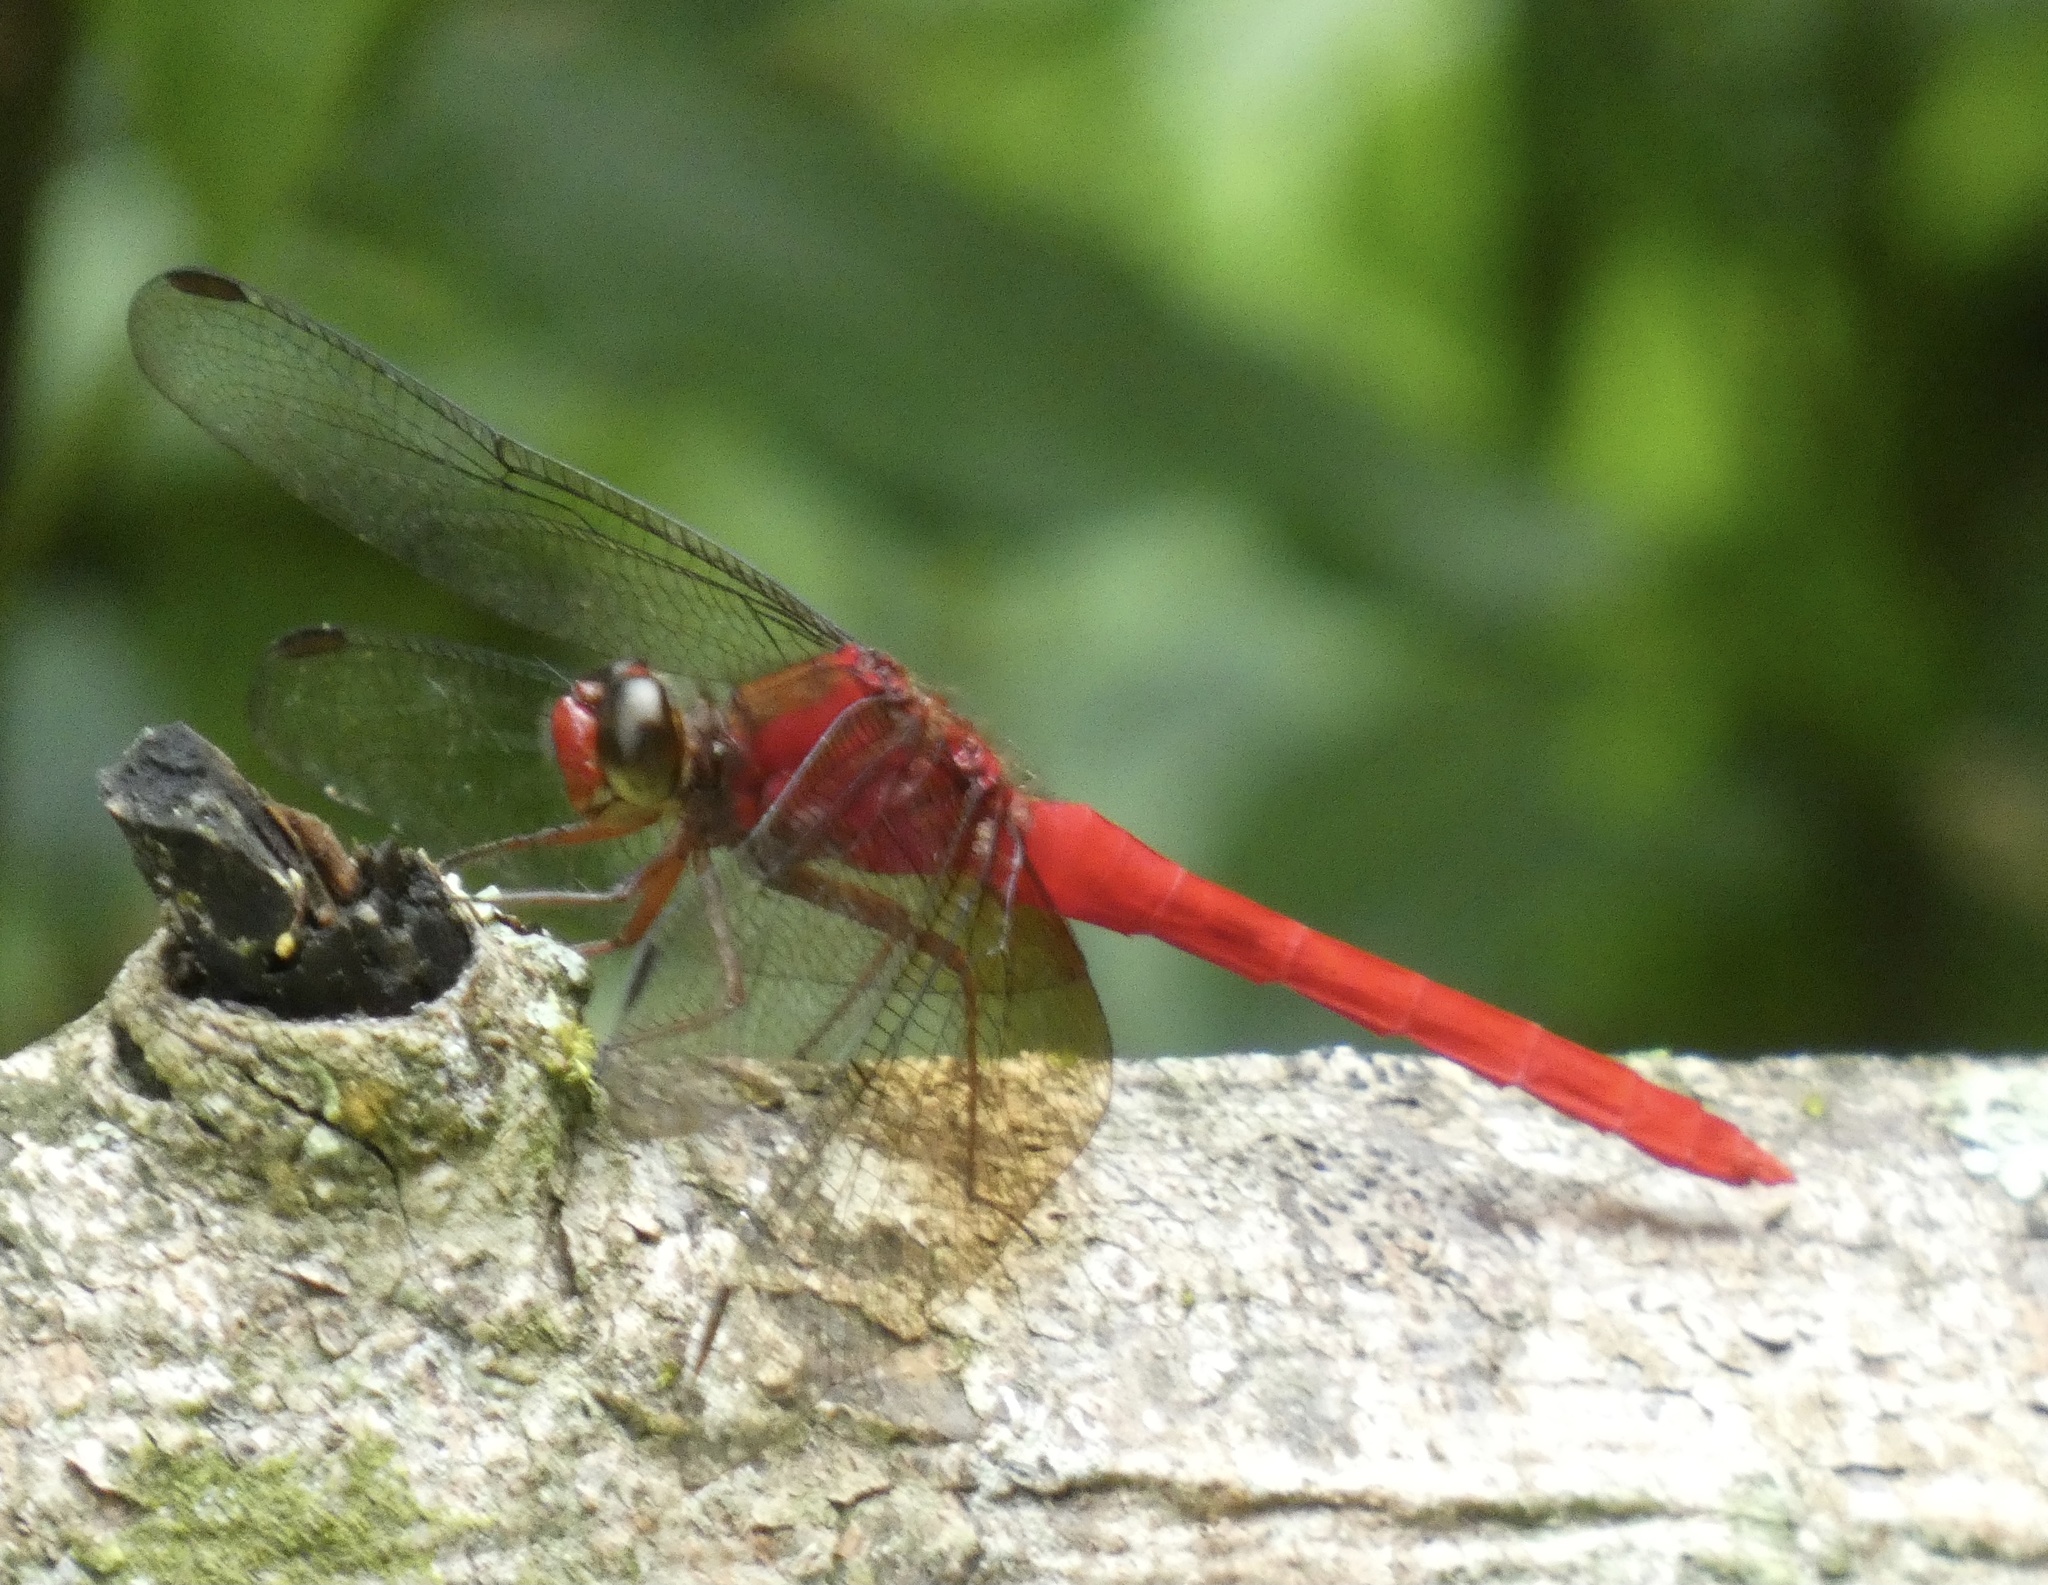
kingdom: Animalia
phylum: Arthropoda
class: Insecta
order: Odonata
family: Libellulidae
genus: Rhodopygia
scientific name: Rhodopygia cardinalis
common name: Cardinal redskimmer
